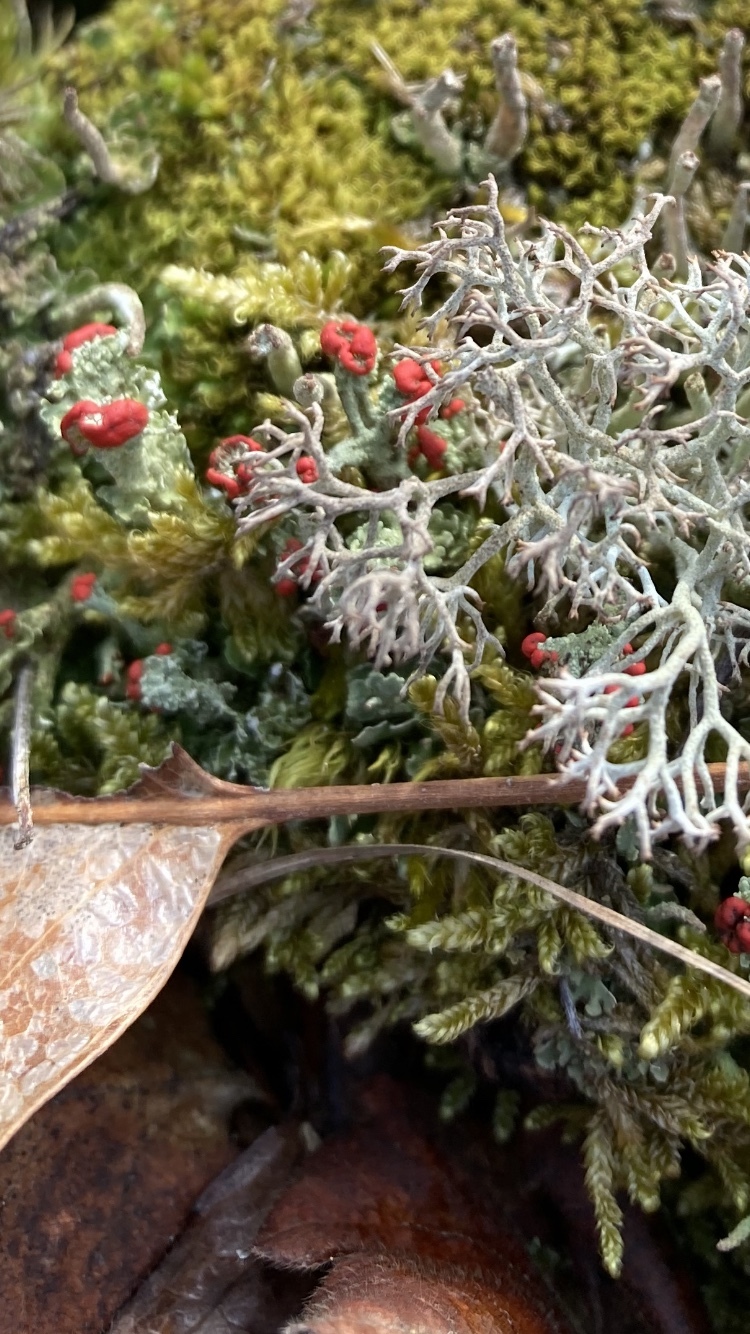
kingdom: Fungi
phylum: Ascomycota
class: Lecanoromycetes
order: Lecanorales
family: Cladoniaceae
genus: Cladonia
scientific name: Cladonia cristatella
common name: British soldier lichen
